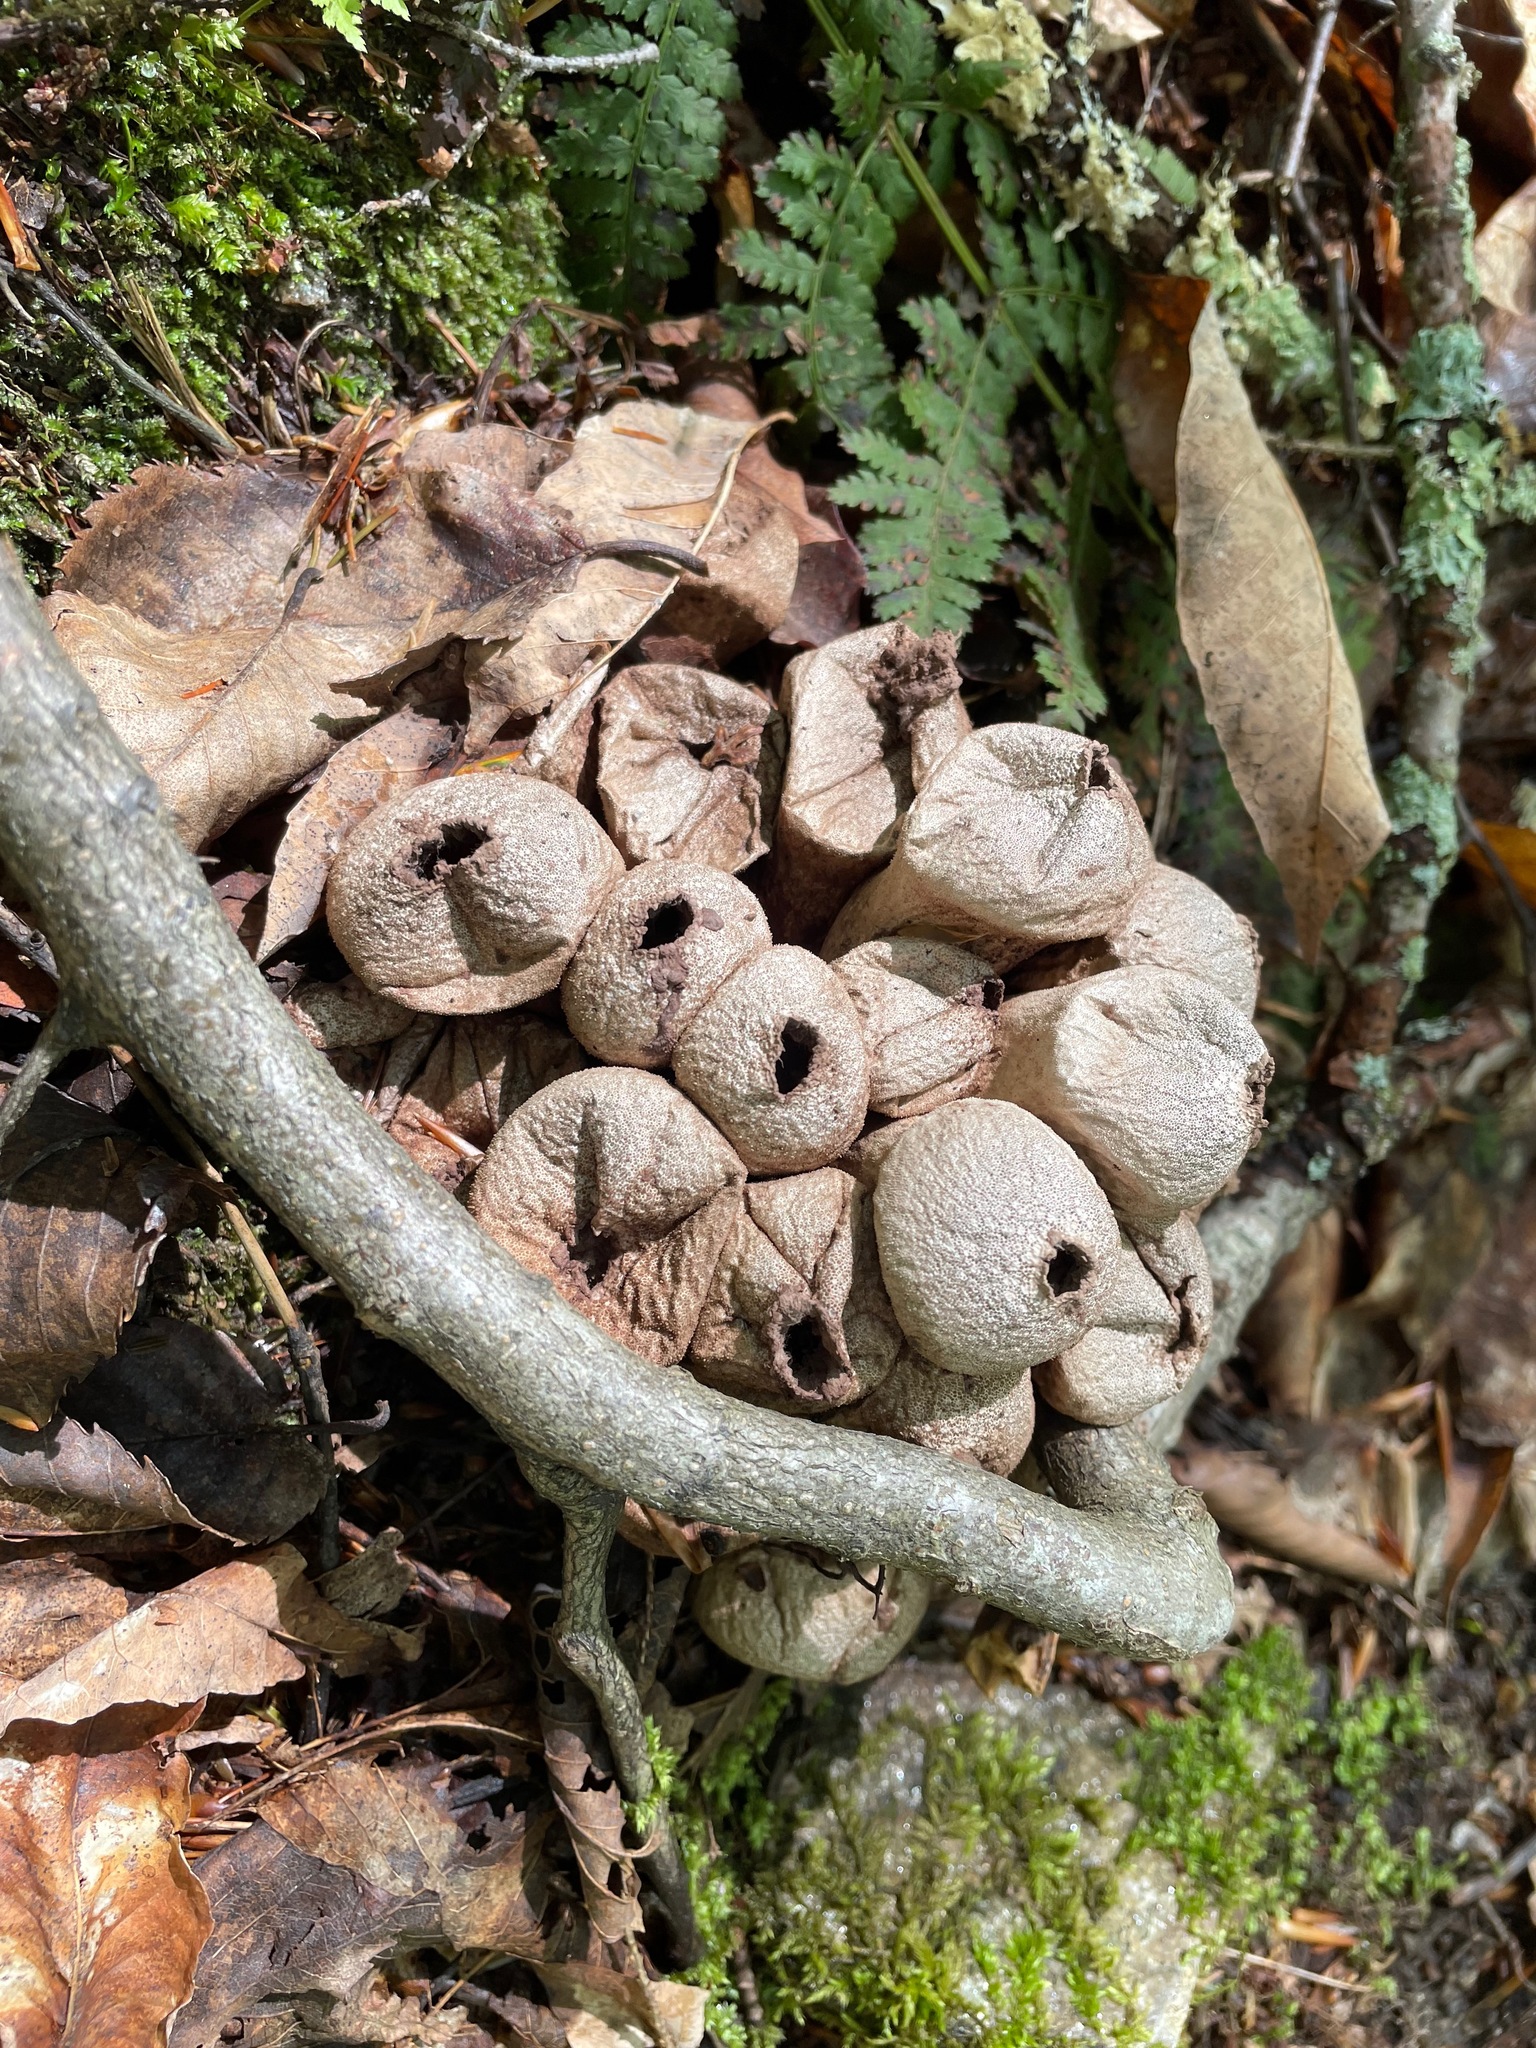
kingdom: Fungi
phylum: Basidiomycota
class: Agaricomycetes
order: Agaricales
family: Lycoperdaceae
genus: Apioperdon
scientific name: Apioperdon pyriforme
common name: Pear-shaped puffball
